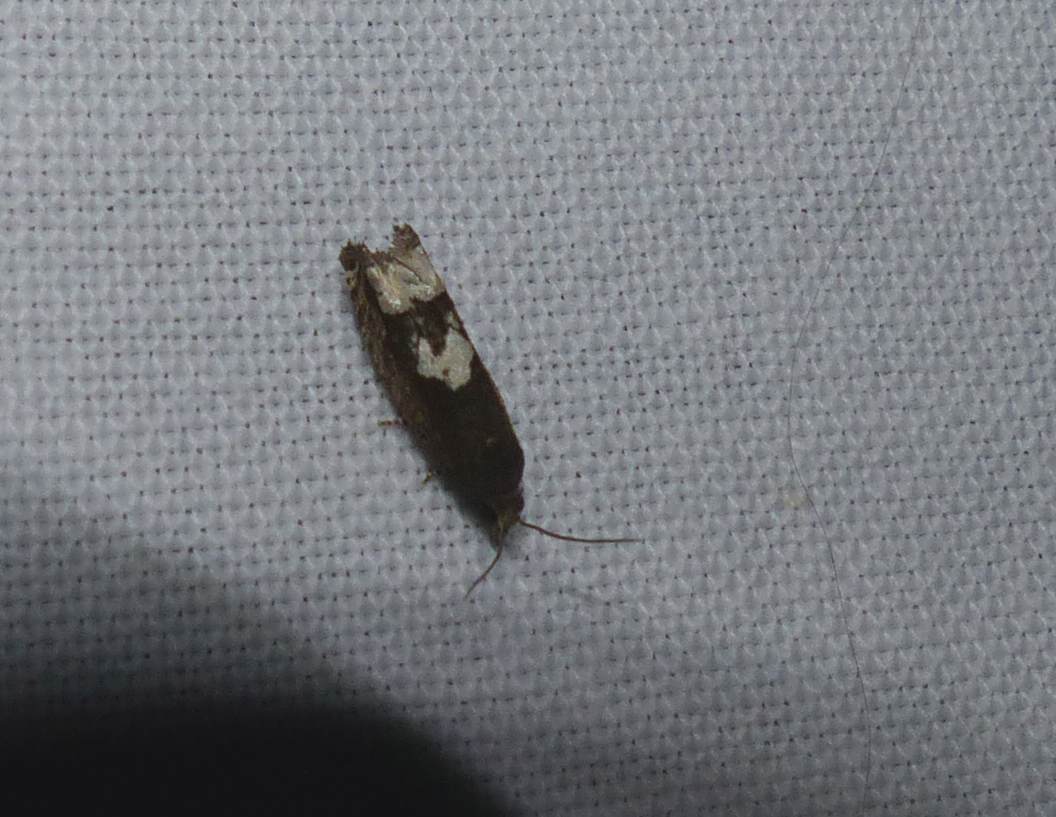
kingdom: Animalia
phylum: Arthropoda
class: Insecta
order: Lepidoptera
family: Tortricidae
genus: Epiblema
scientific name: Epiblema otiosana
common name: Bidens borer moth
